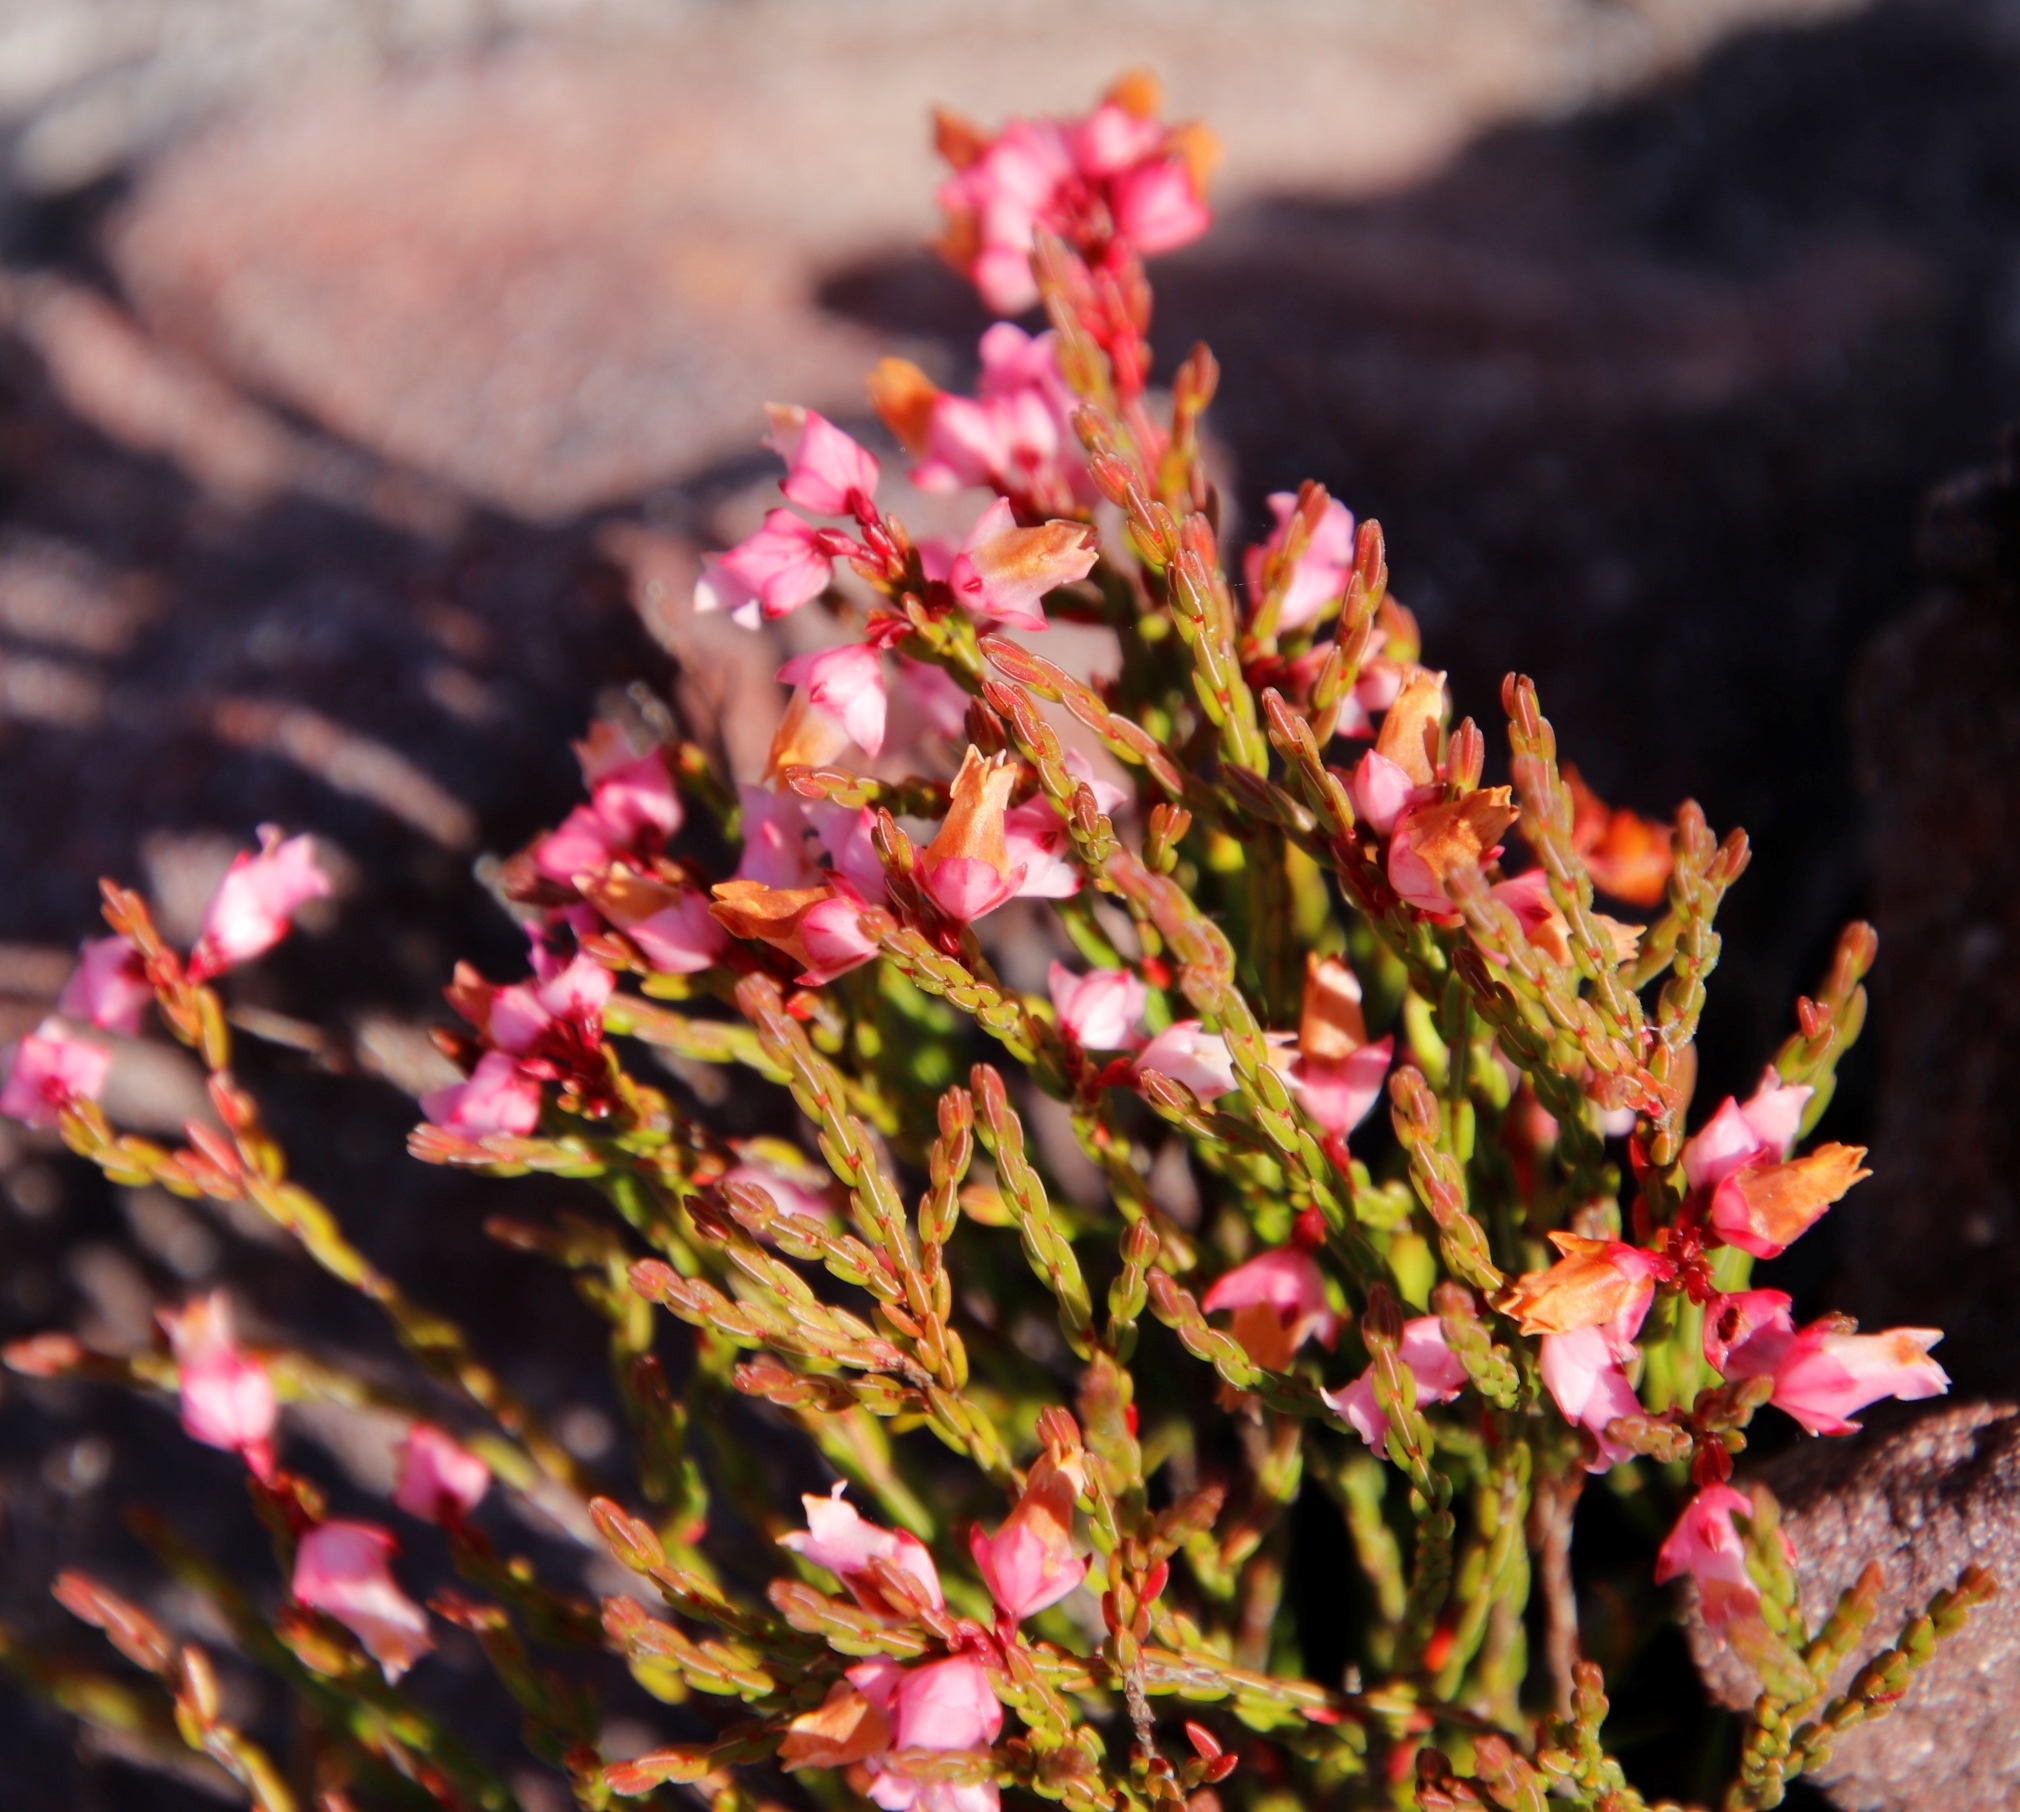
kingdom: Plantae
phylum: Tracheophyta
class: Magnoliopsida
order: Ericales
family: Ericaceae
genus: Erica
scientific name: Erica tenuifolia
